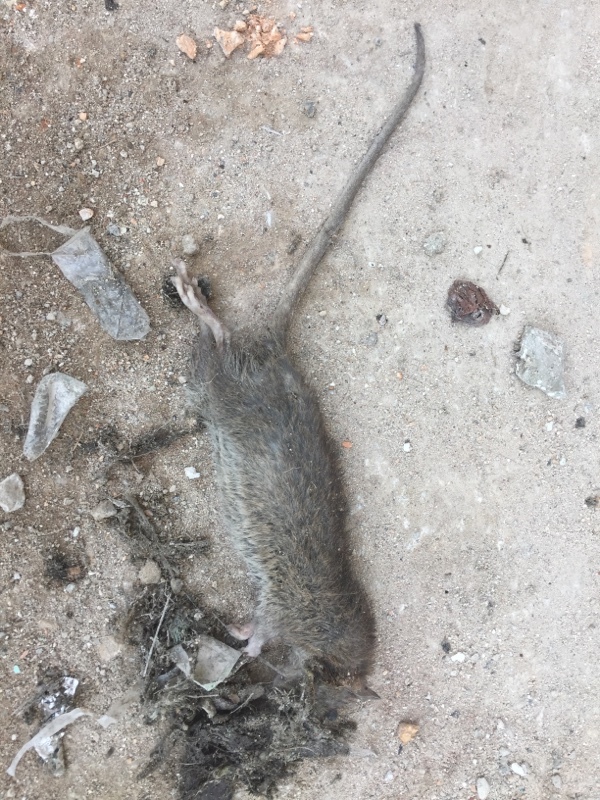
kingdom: Animalia
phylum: Chordata
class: Mammalia
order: Rodentia
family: Muridae
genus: Rattus
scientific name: Rattus norvegicus
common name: Brown rat
